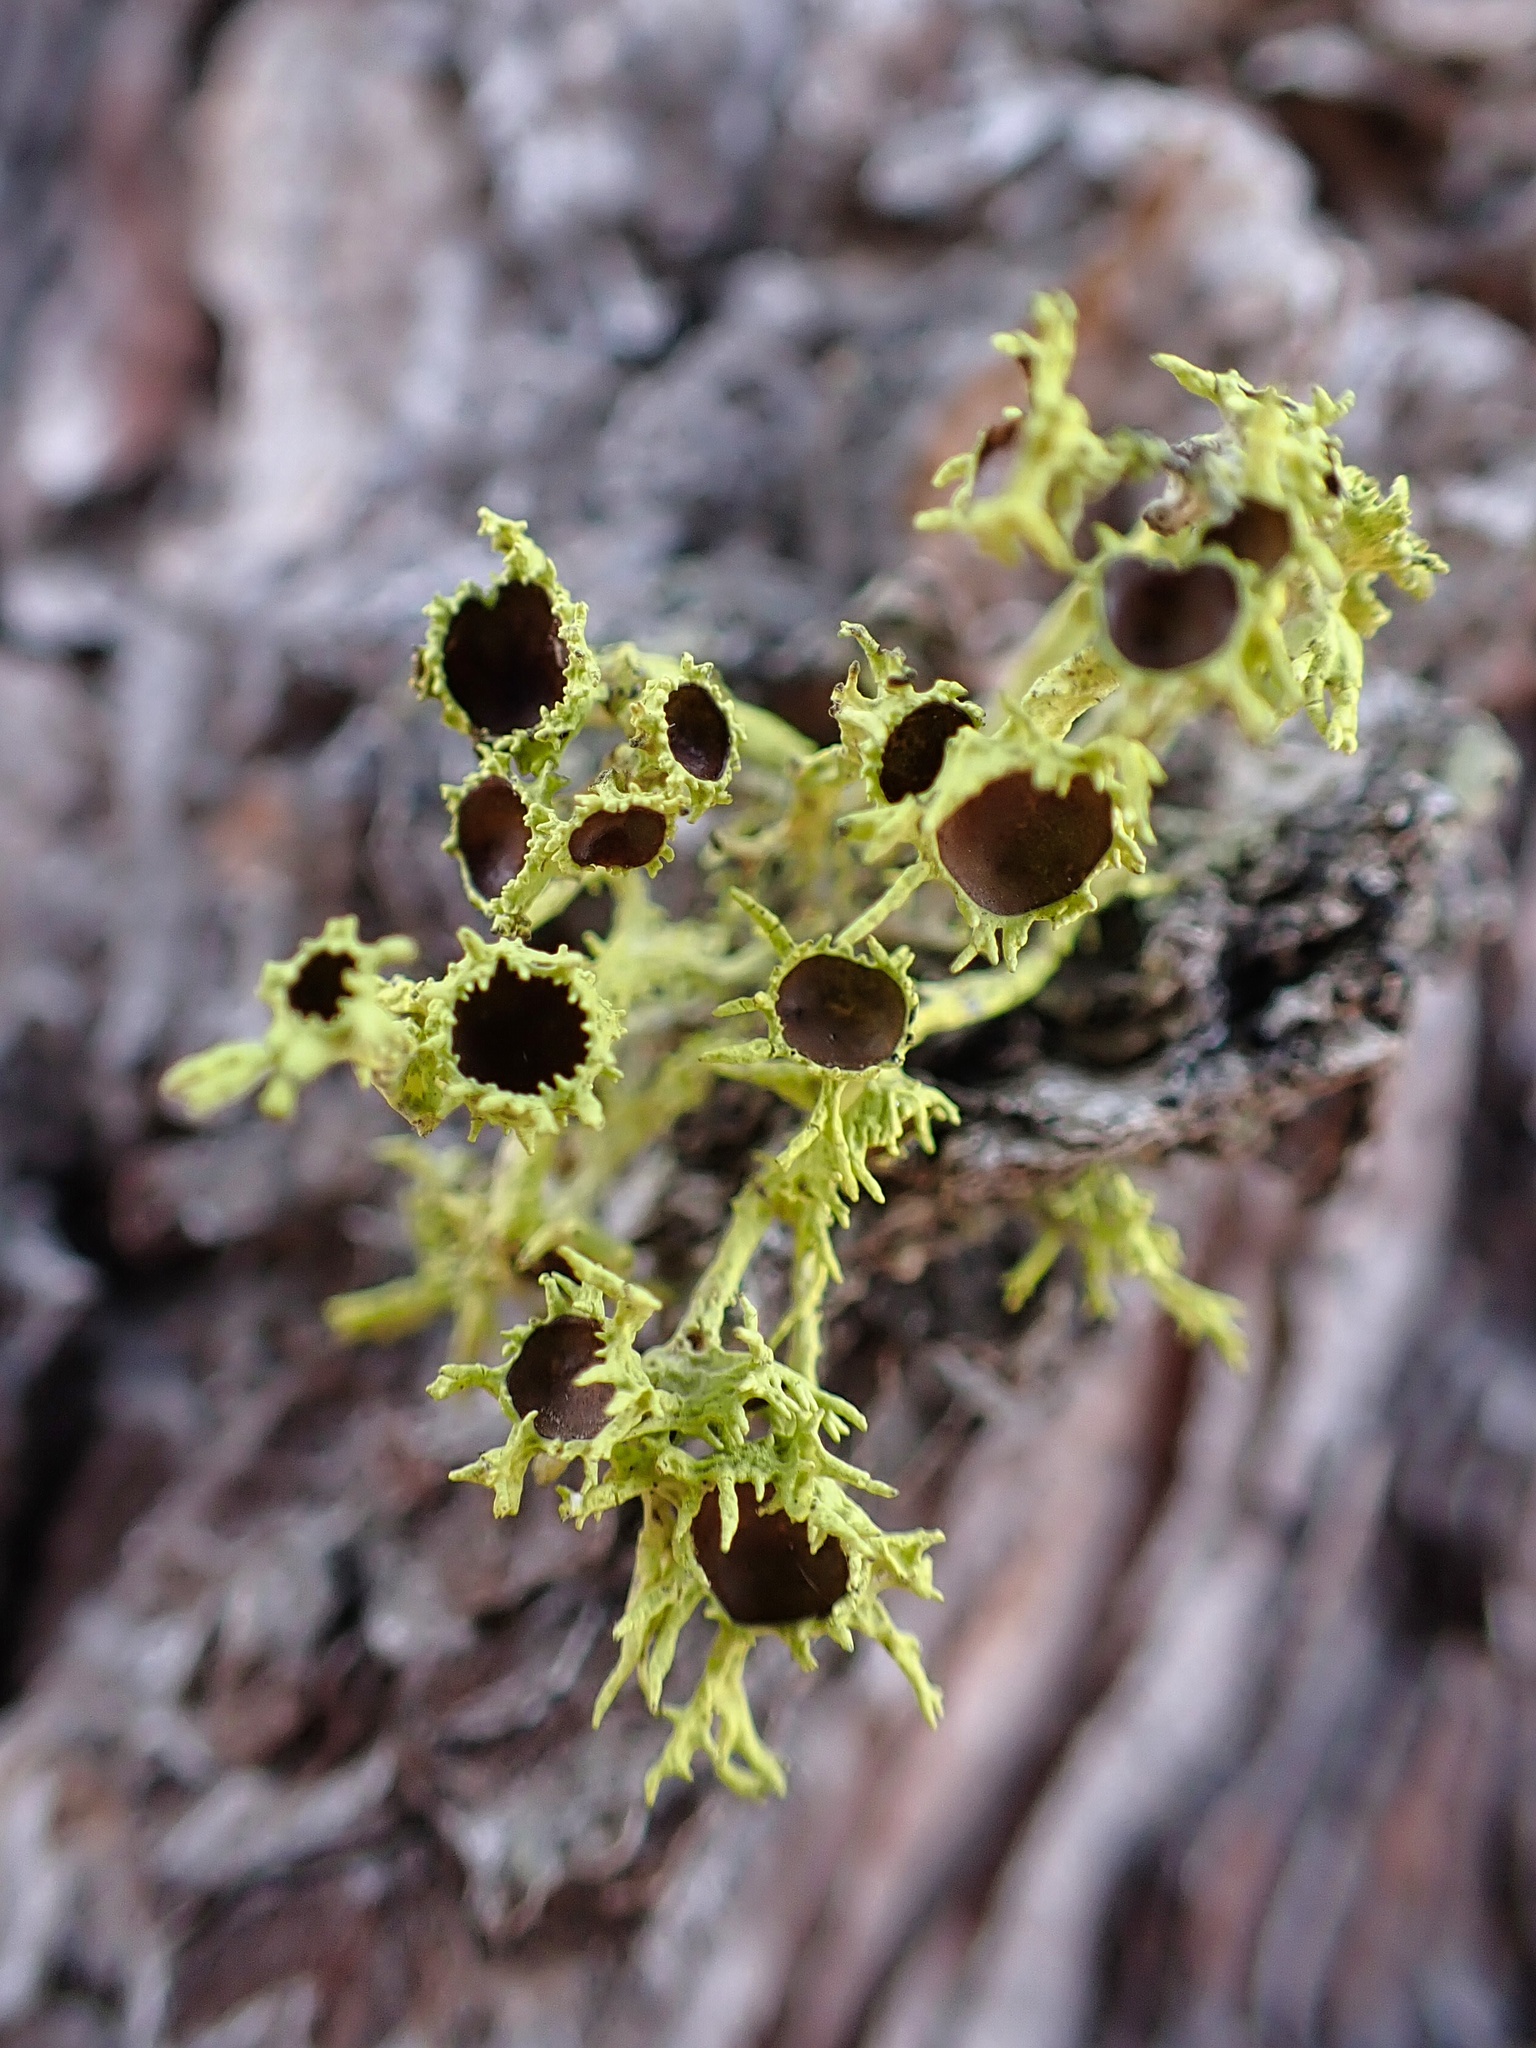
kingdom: Fungi
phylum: Ascomycota
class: Lecanoromycetes
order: Lecanorales
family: Parmeliaceae
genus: Letharia
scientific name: Letharia columbiana
